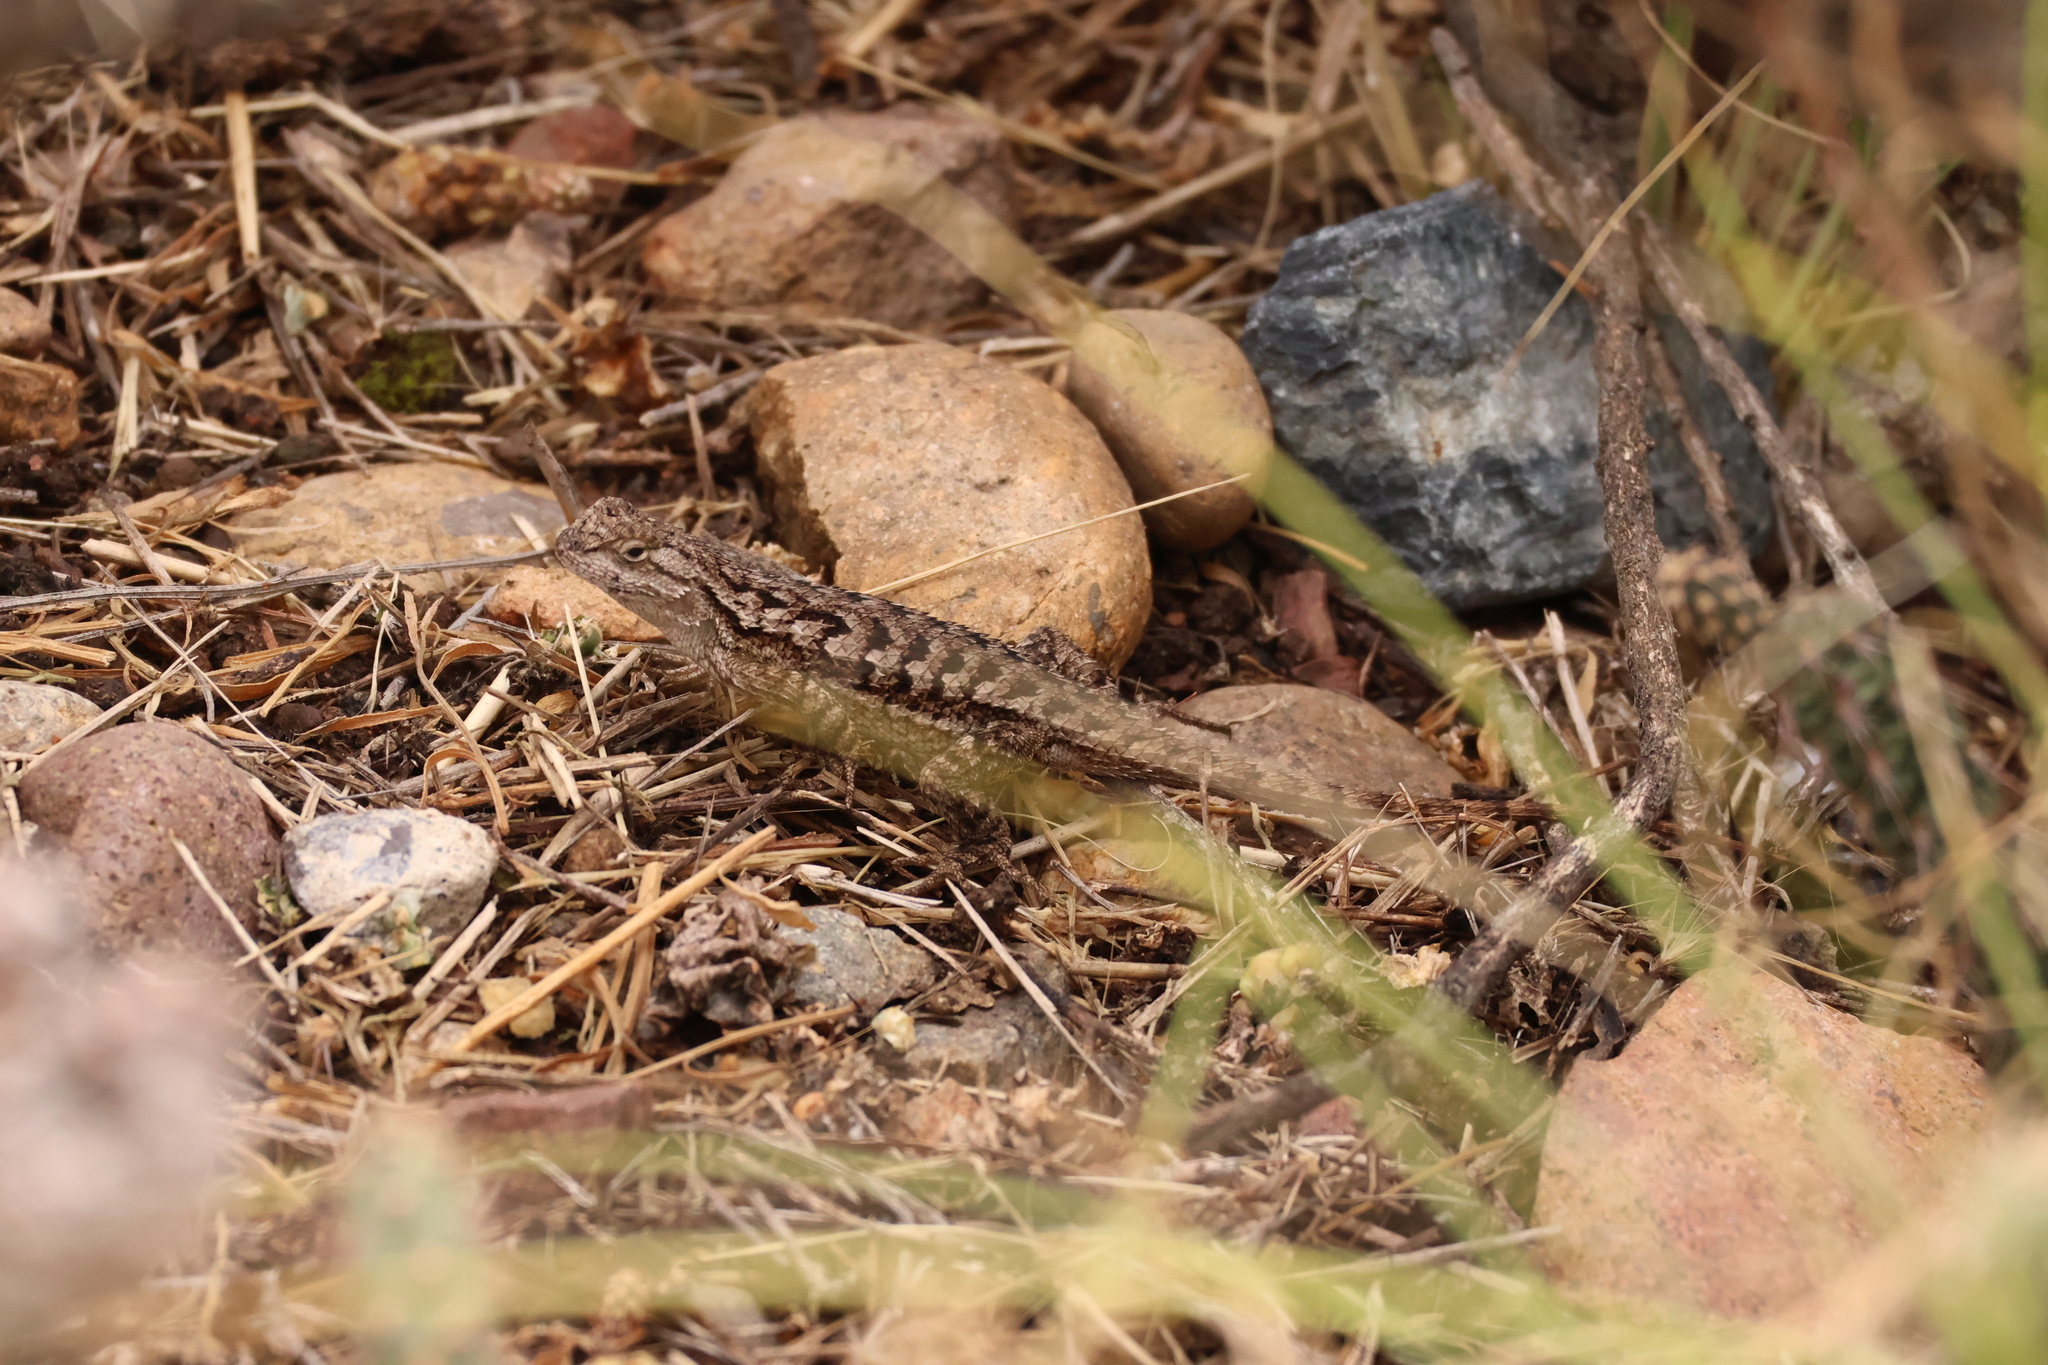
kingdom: Animalia
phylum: Chordata
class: Squamata
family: Phrynosomatidae
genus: Sceloporus
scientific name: Sceloporus occidentalis
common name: Western fence lizard
